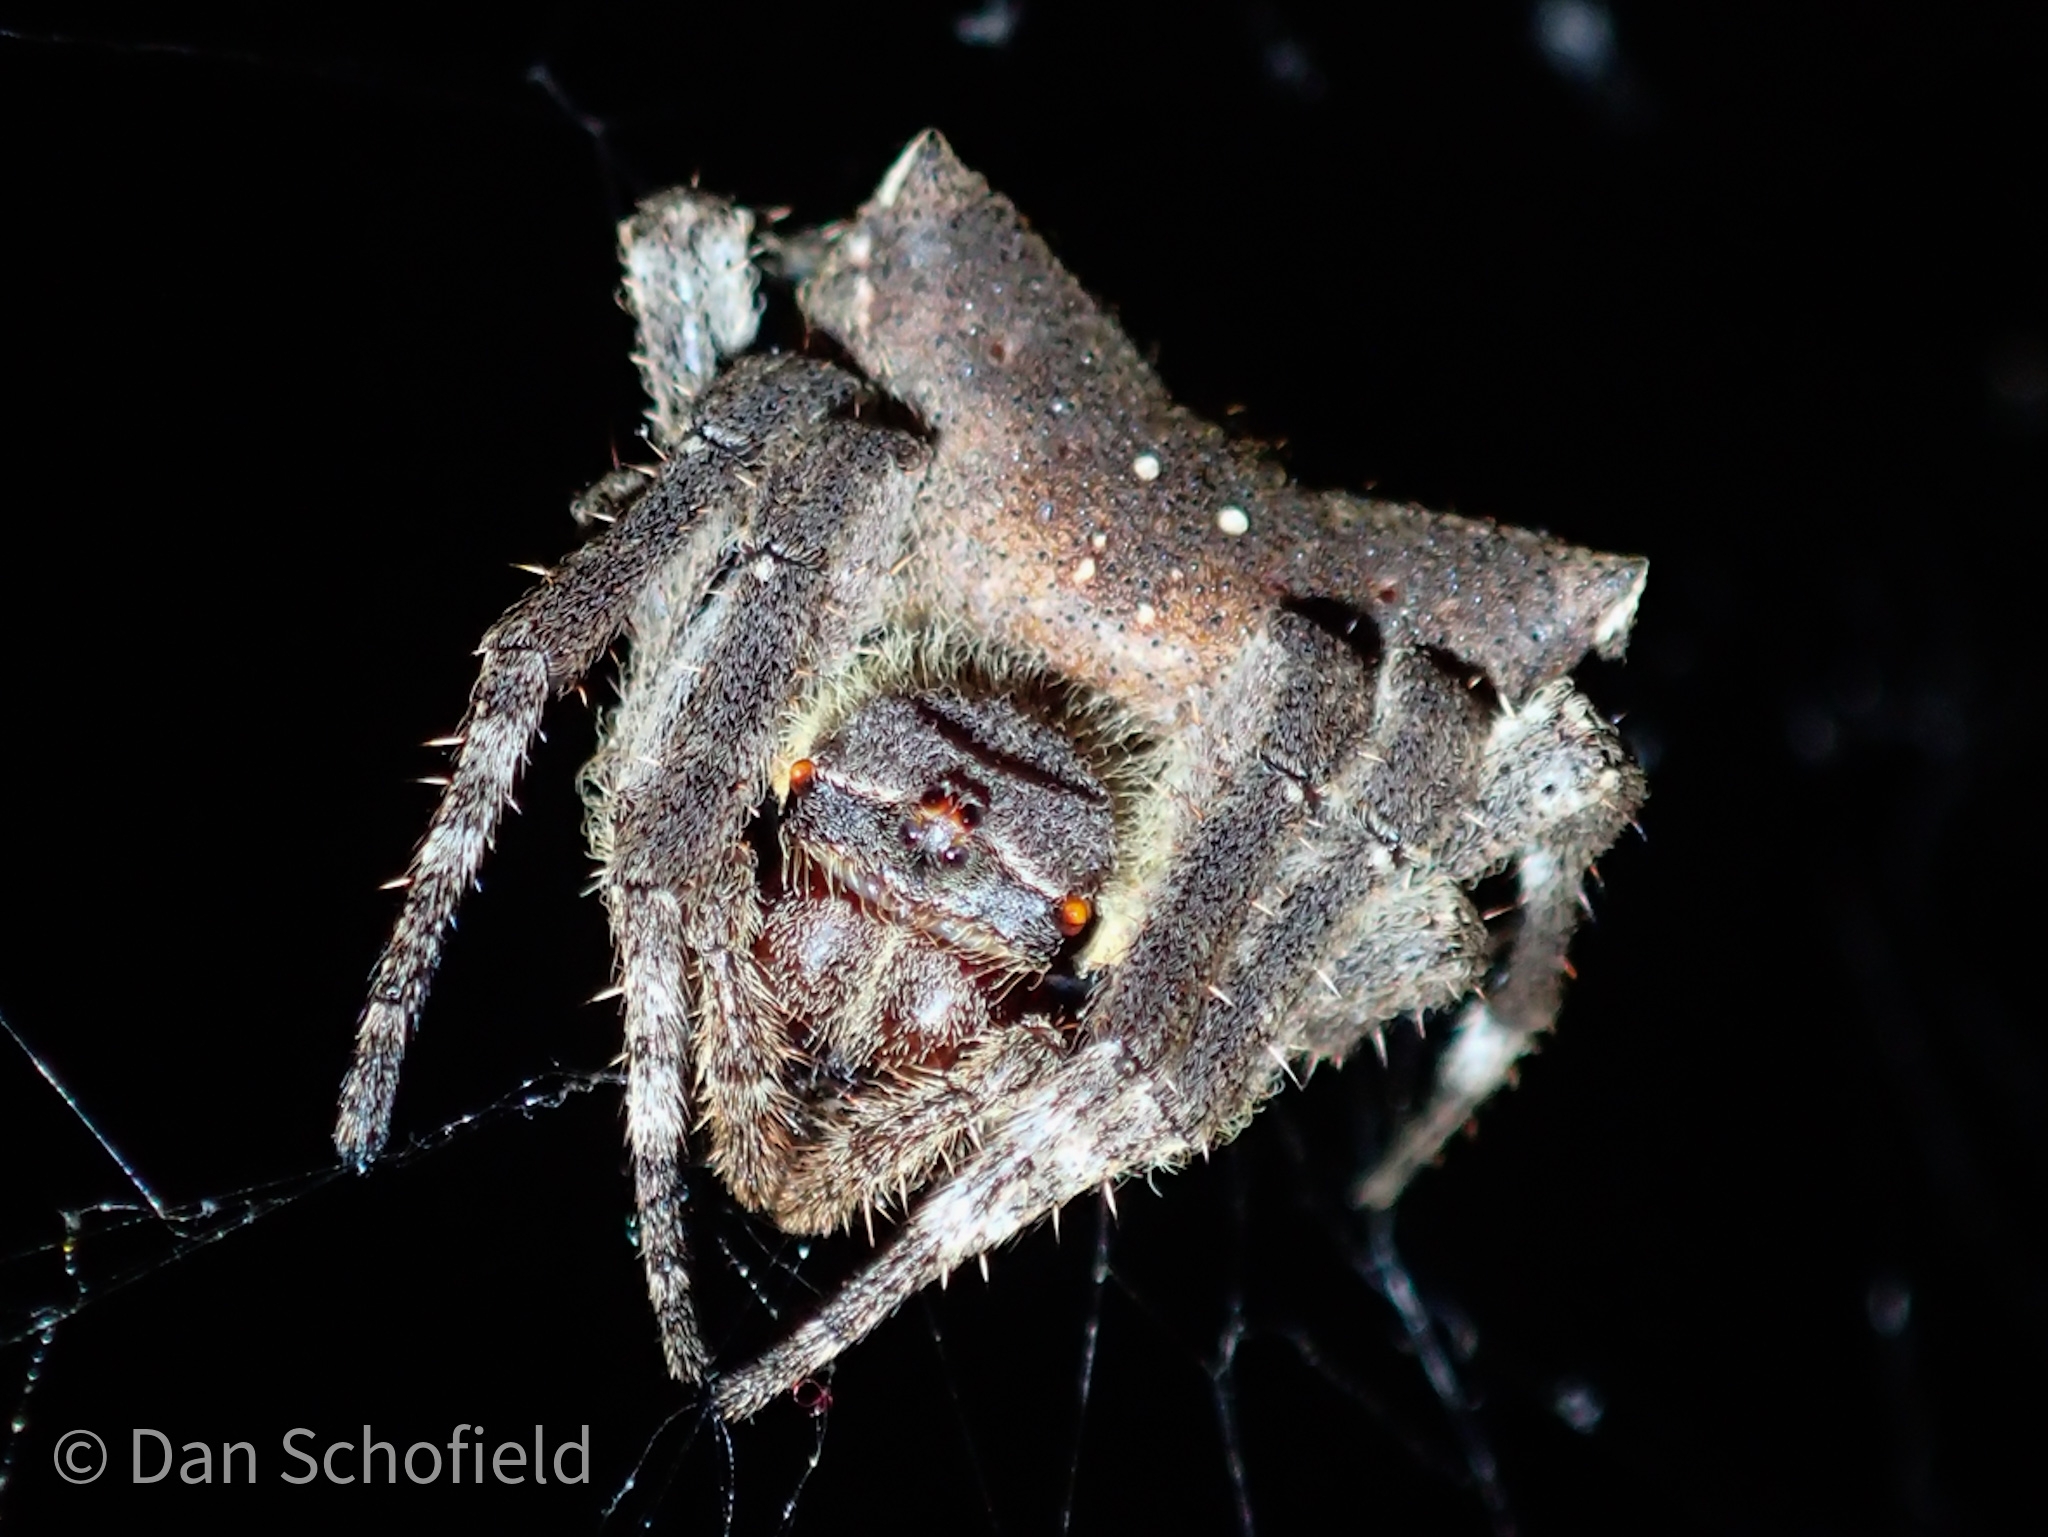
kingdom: Animalia
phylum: Arthropoda
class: Arachnida
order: Araneae
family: Araneidae
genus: Parawixia
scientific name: Parawixia dehaani
